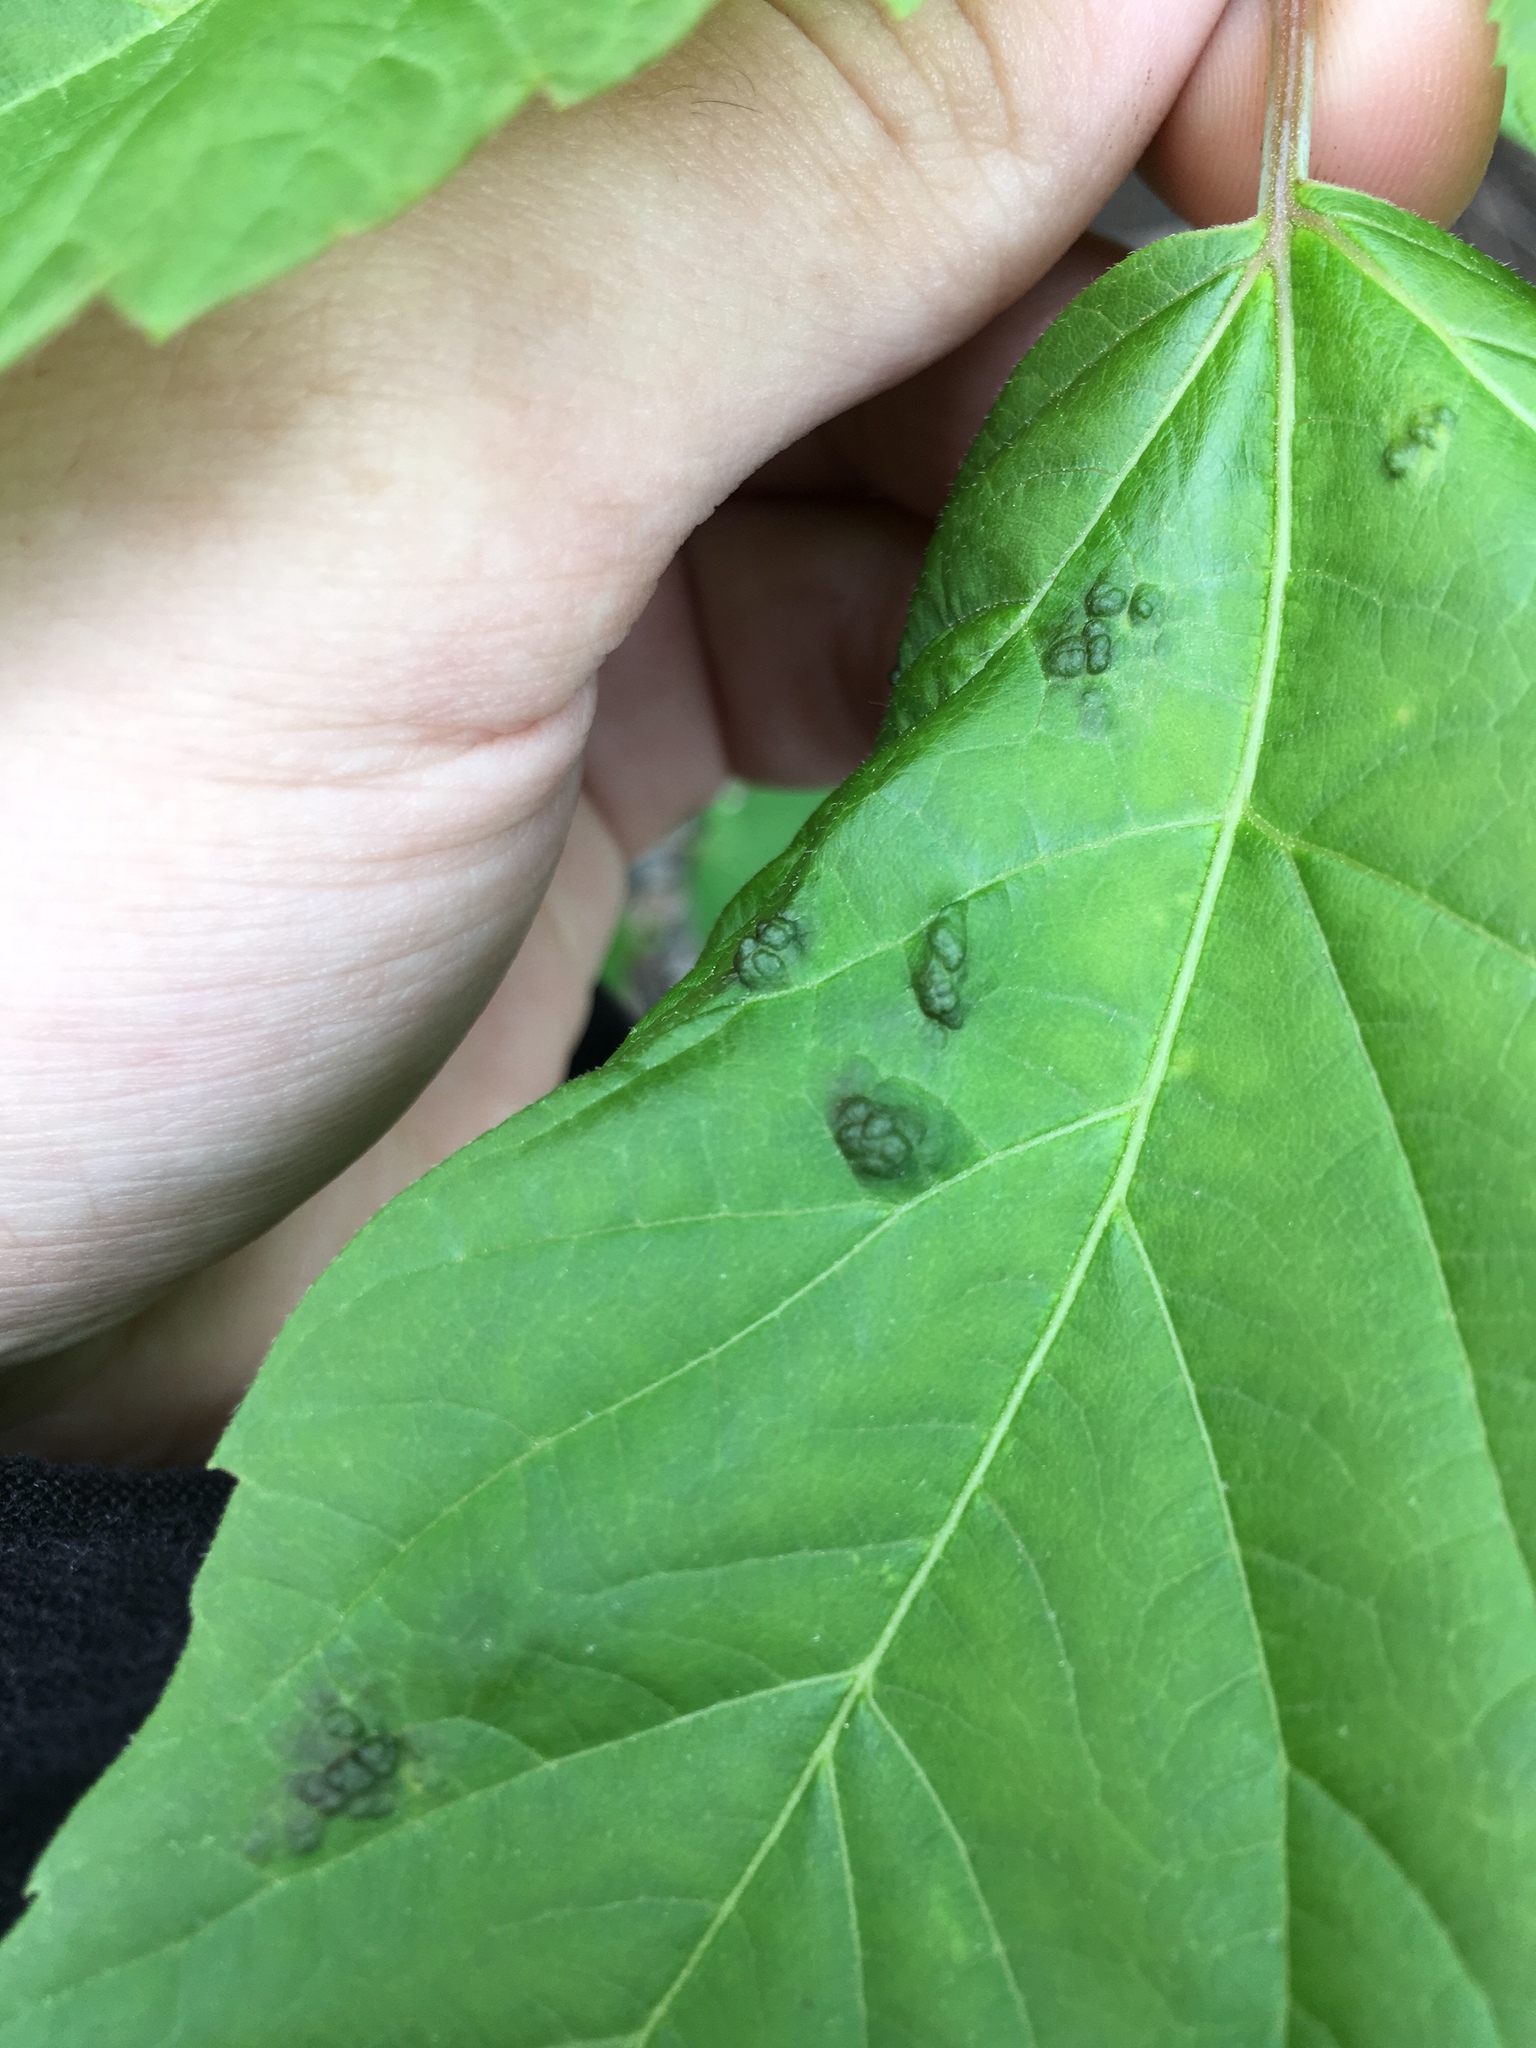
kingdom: Animalia
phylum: Arthropoda
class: Arachnida
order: Trombidiformes
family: Eriophyidae
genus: Aceria
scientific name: Aceria
